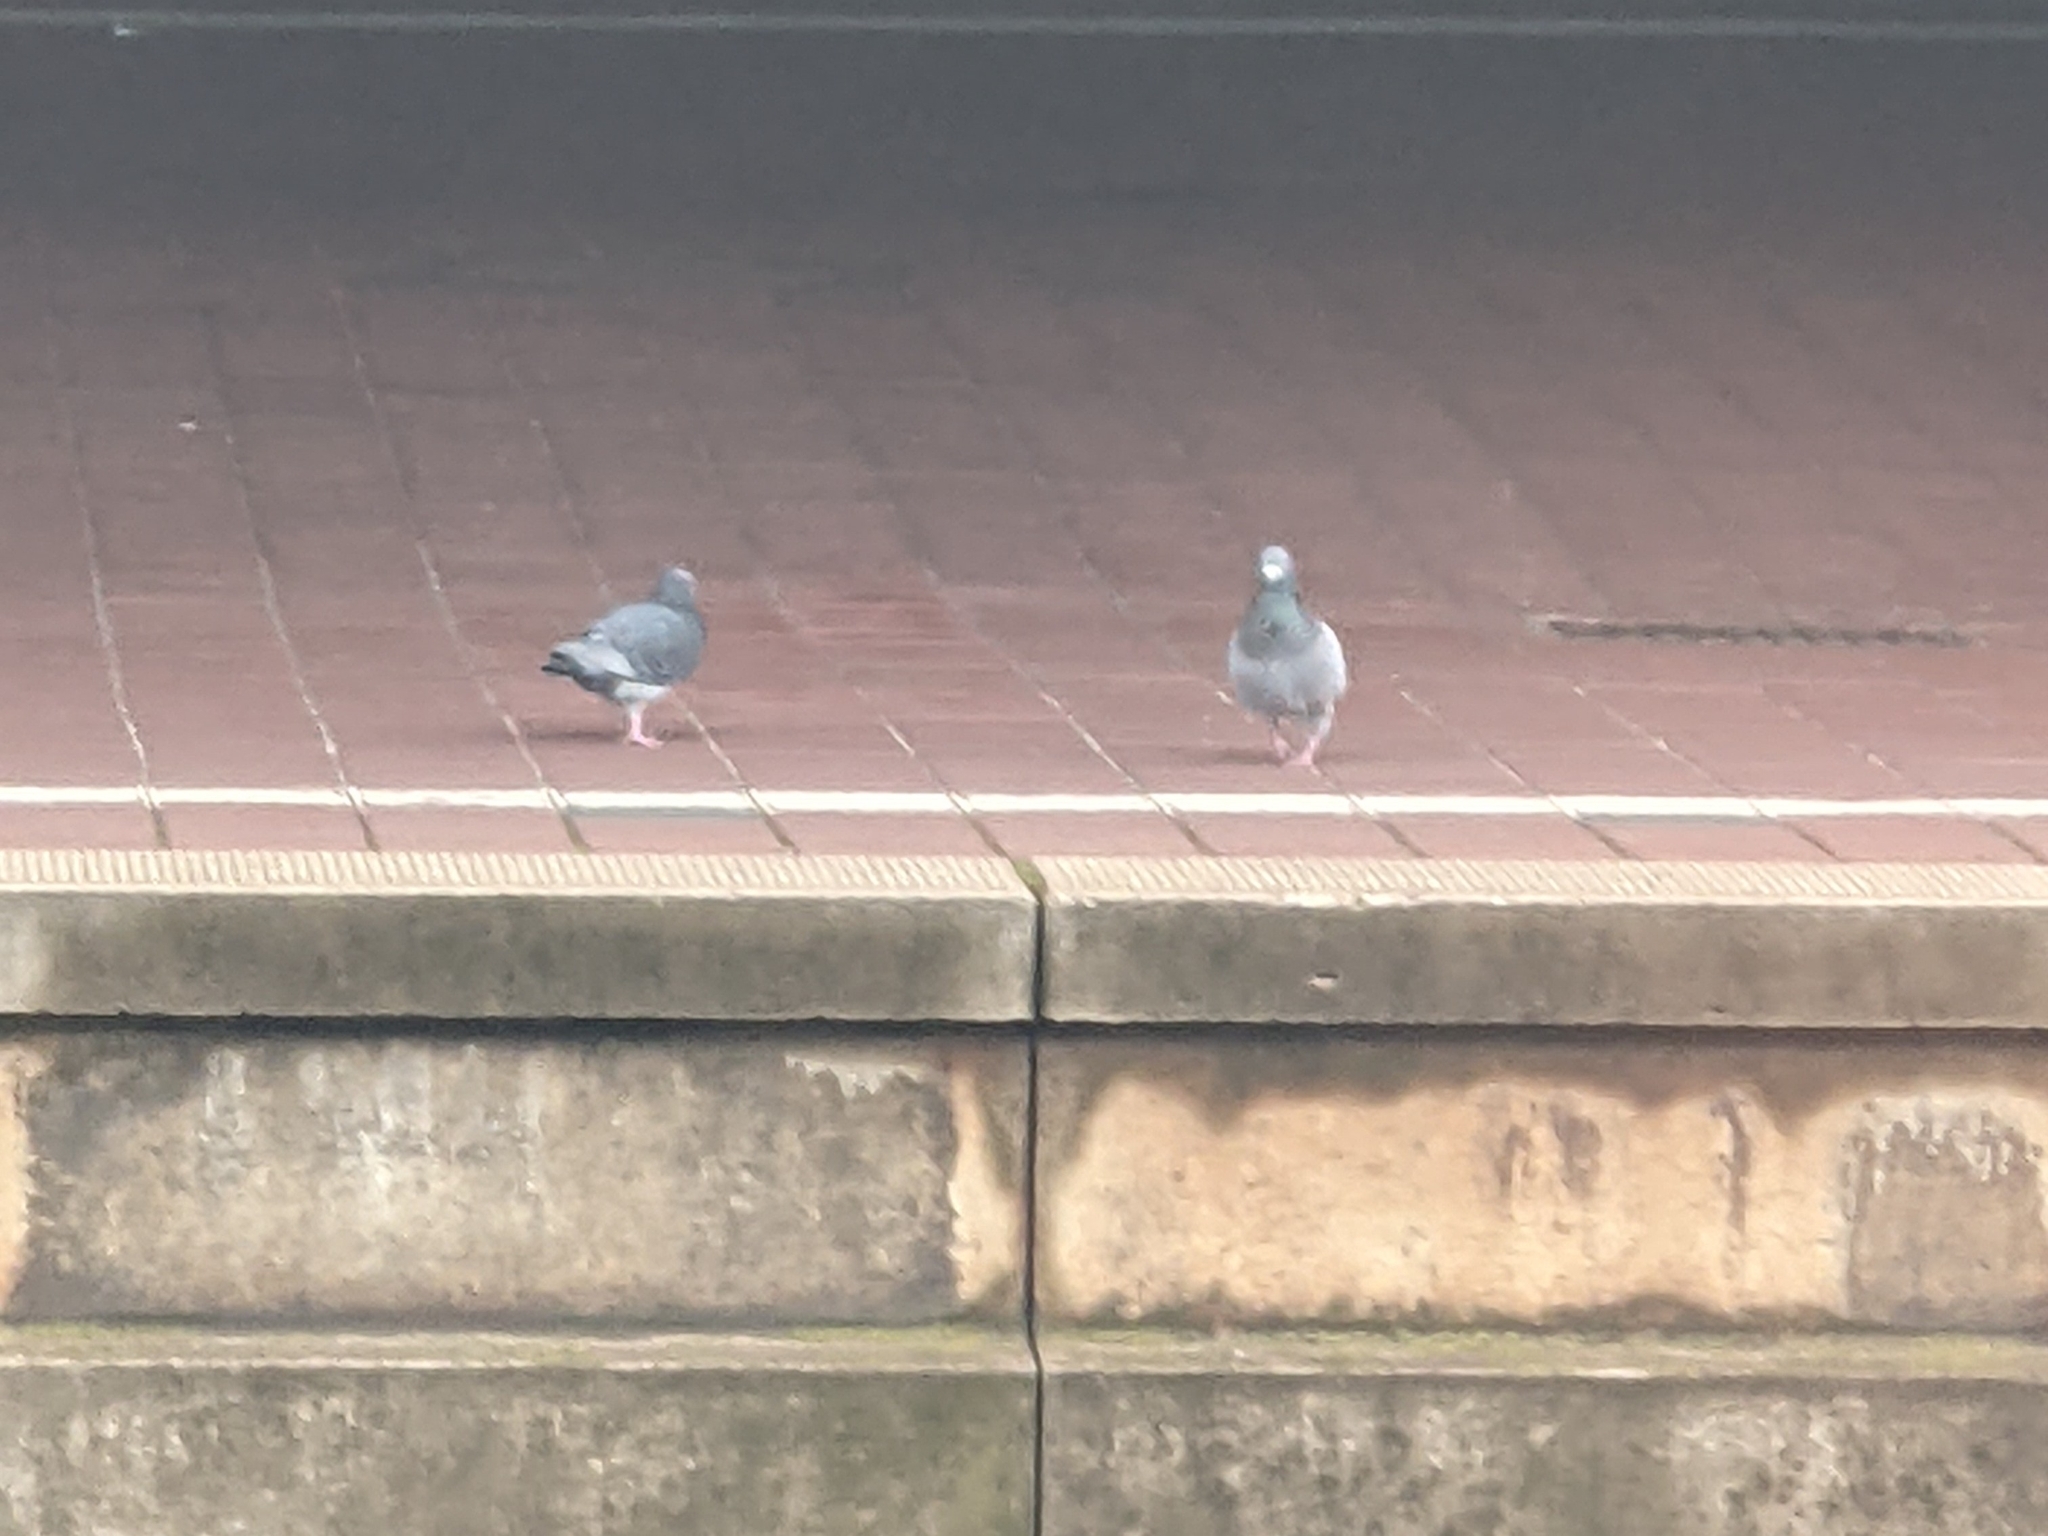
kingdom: Animalia
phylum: Chordata
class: Aves
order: Columbiformes
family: Columbidae
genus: Columba
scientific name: Columba livia
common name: Rock pigeon
